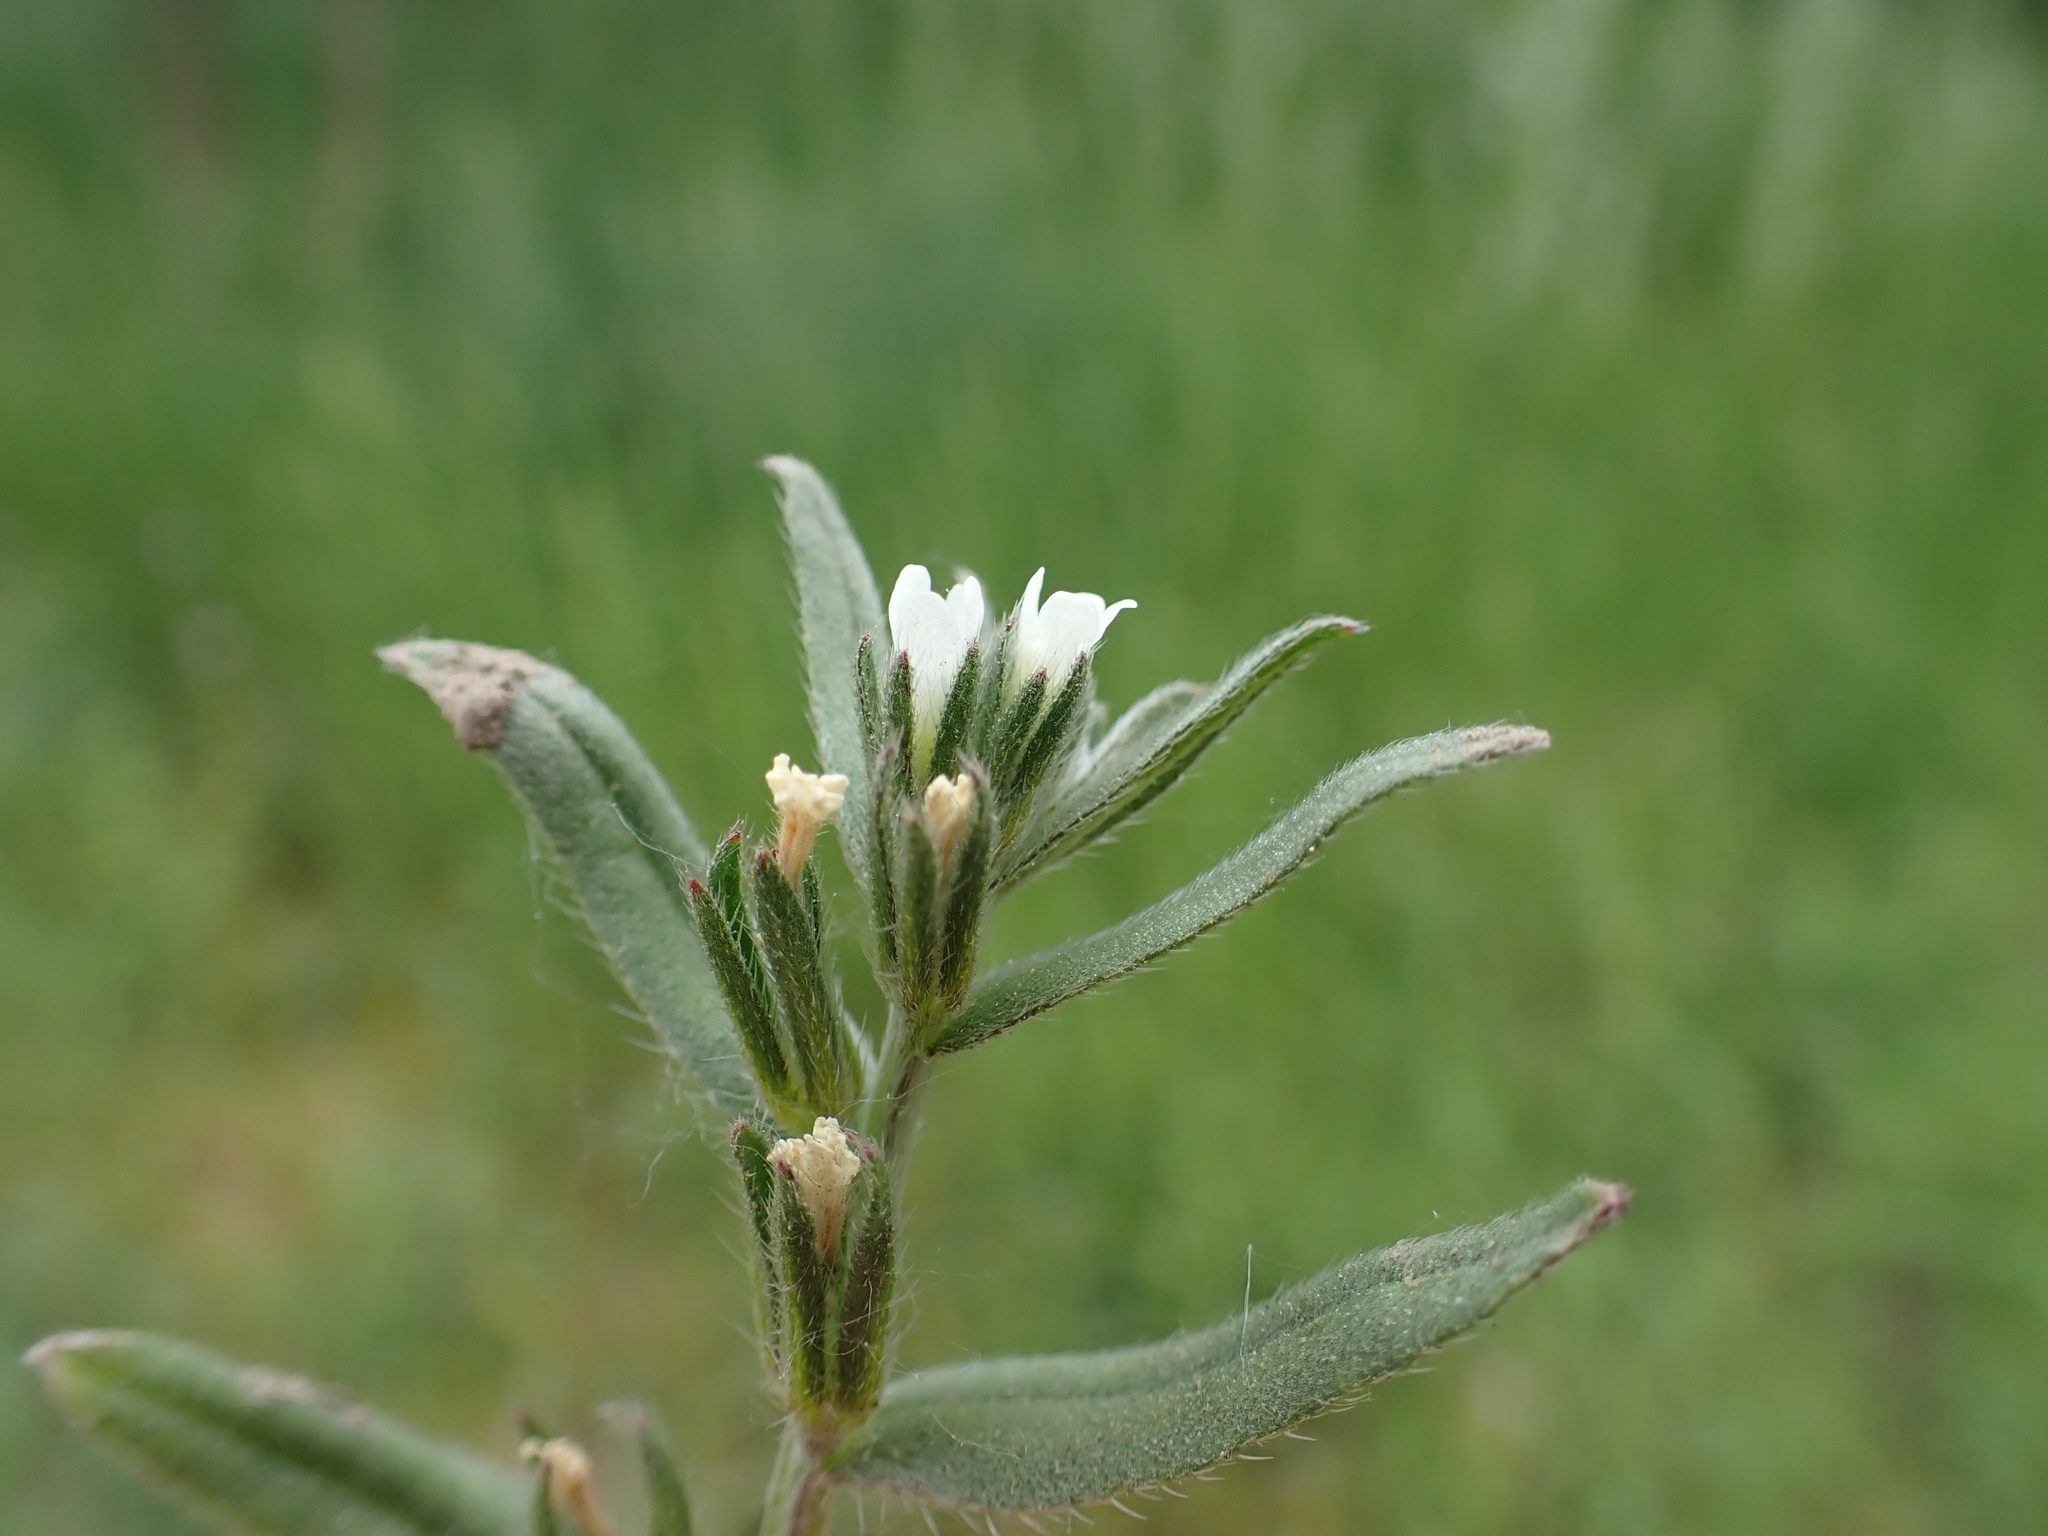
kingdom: Plantae
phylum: Tracheophyta
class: Magnoliopsida
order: Boraginales
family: Boraginaceae
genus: Buglossoides
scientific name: Buglossoides arvensis
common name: Corn gromwell
